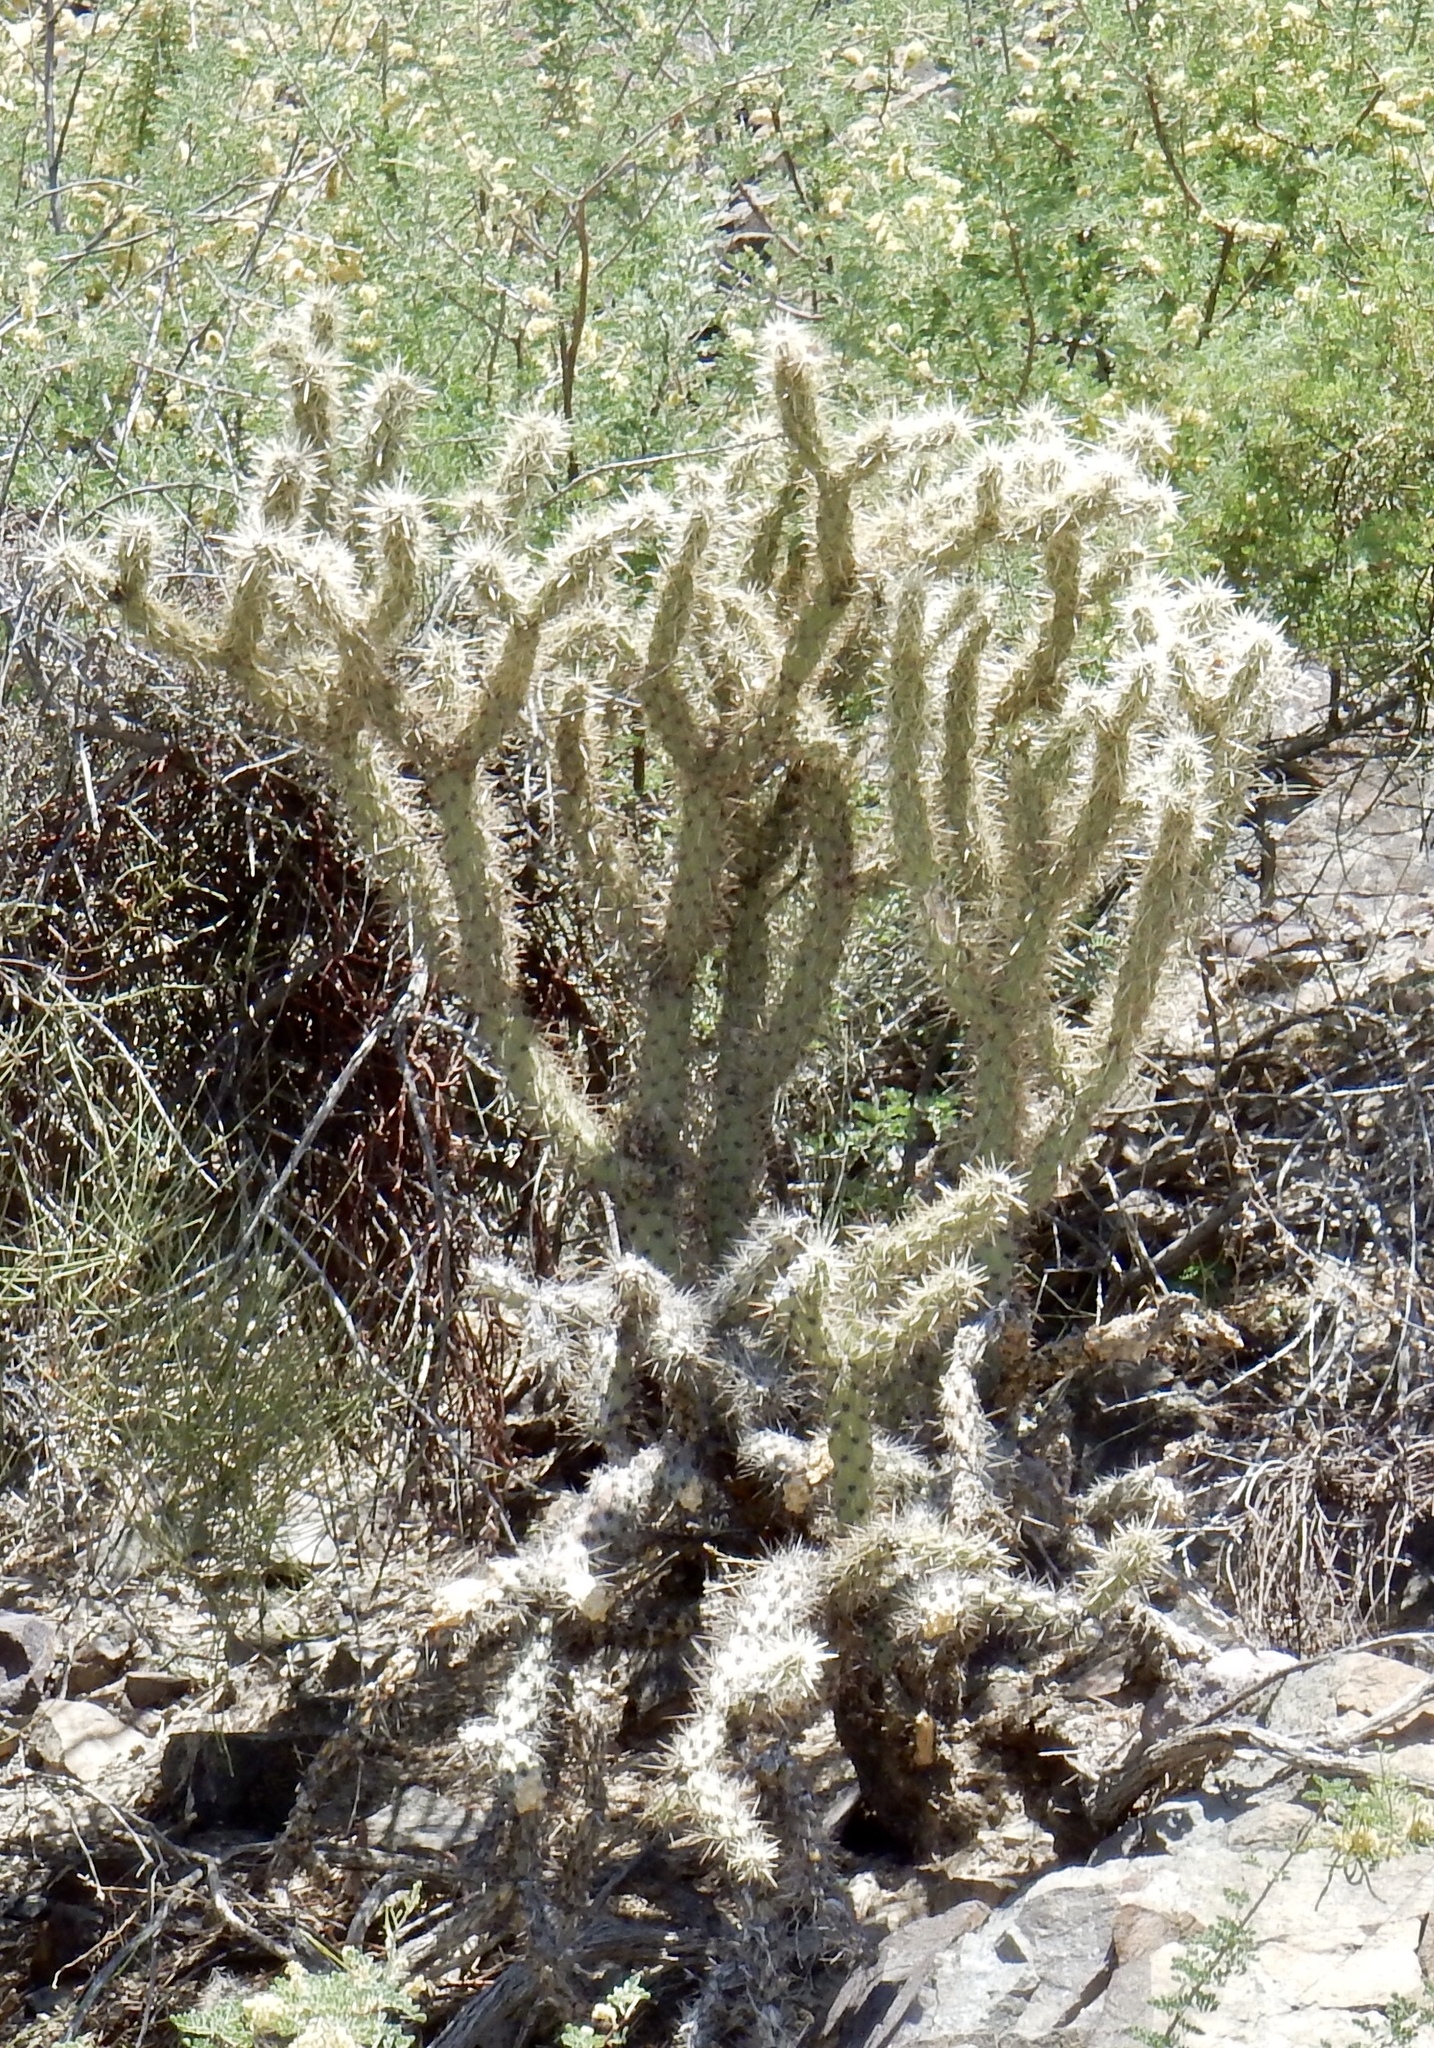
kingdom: Plantae
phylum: Tracheophyta
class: Magnoliopsida
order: Caryophyllales
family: Cactaceae
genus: Cylindropuntia
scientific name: Cylindropuntia acanthocarpa
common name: Buckhorn cholla
